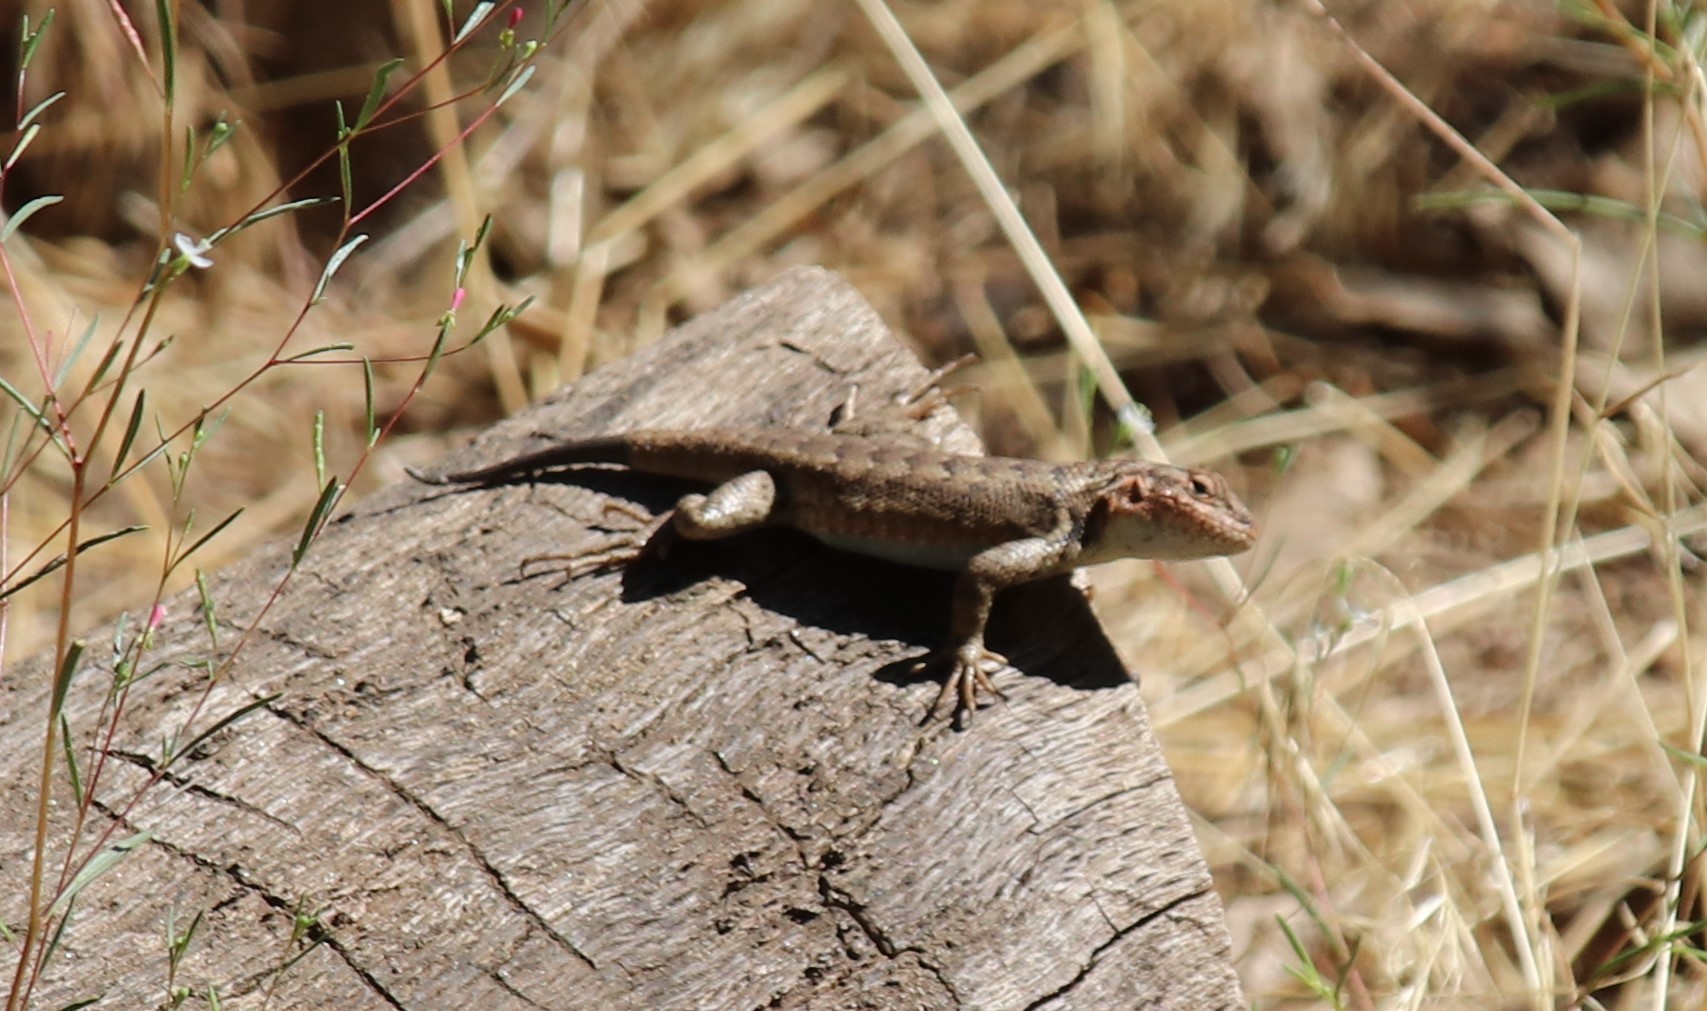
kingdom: Animalia
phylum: Chordata
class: Squamata
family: Phrynosomatidae
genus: Sceloporus
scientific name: Sceloporus graciosus
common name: Sagebrush lizard
